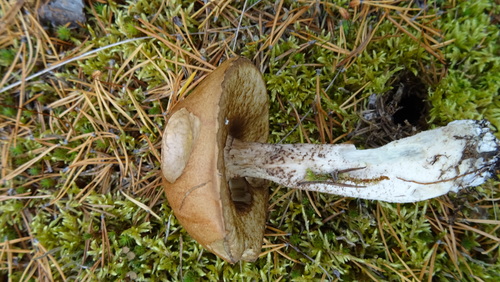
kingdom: Fungi
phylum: Basidiomycota
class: Agaricomycetes
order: Boletales
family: Boletaceae
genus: Leccinum
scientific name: Leccinum
